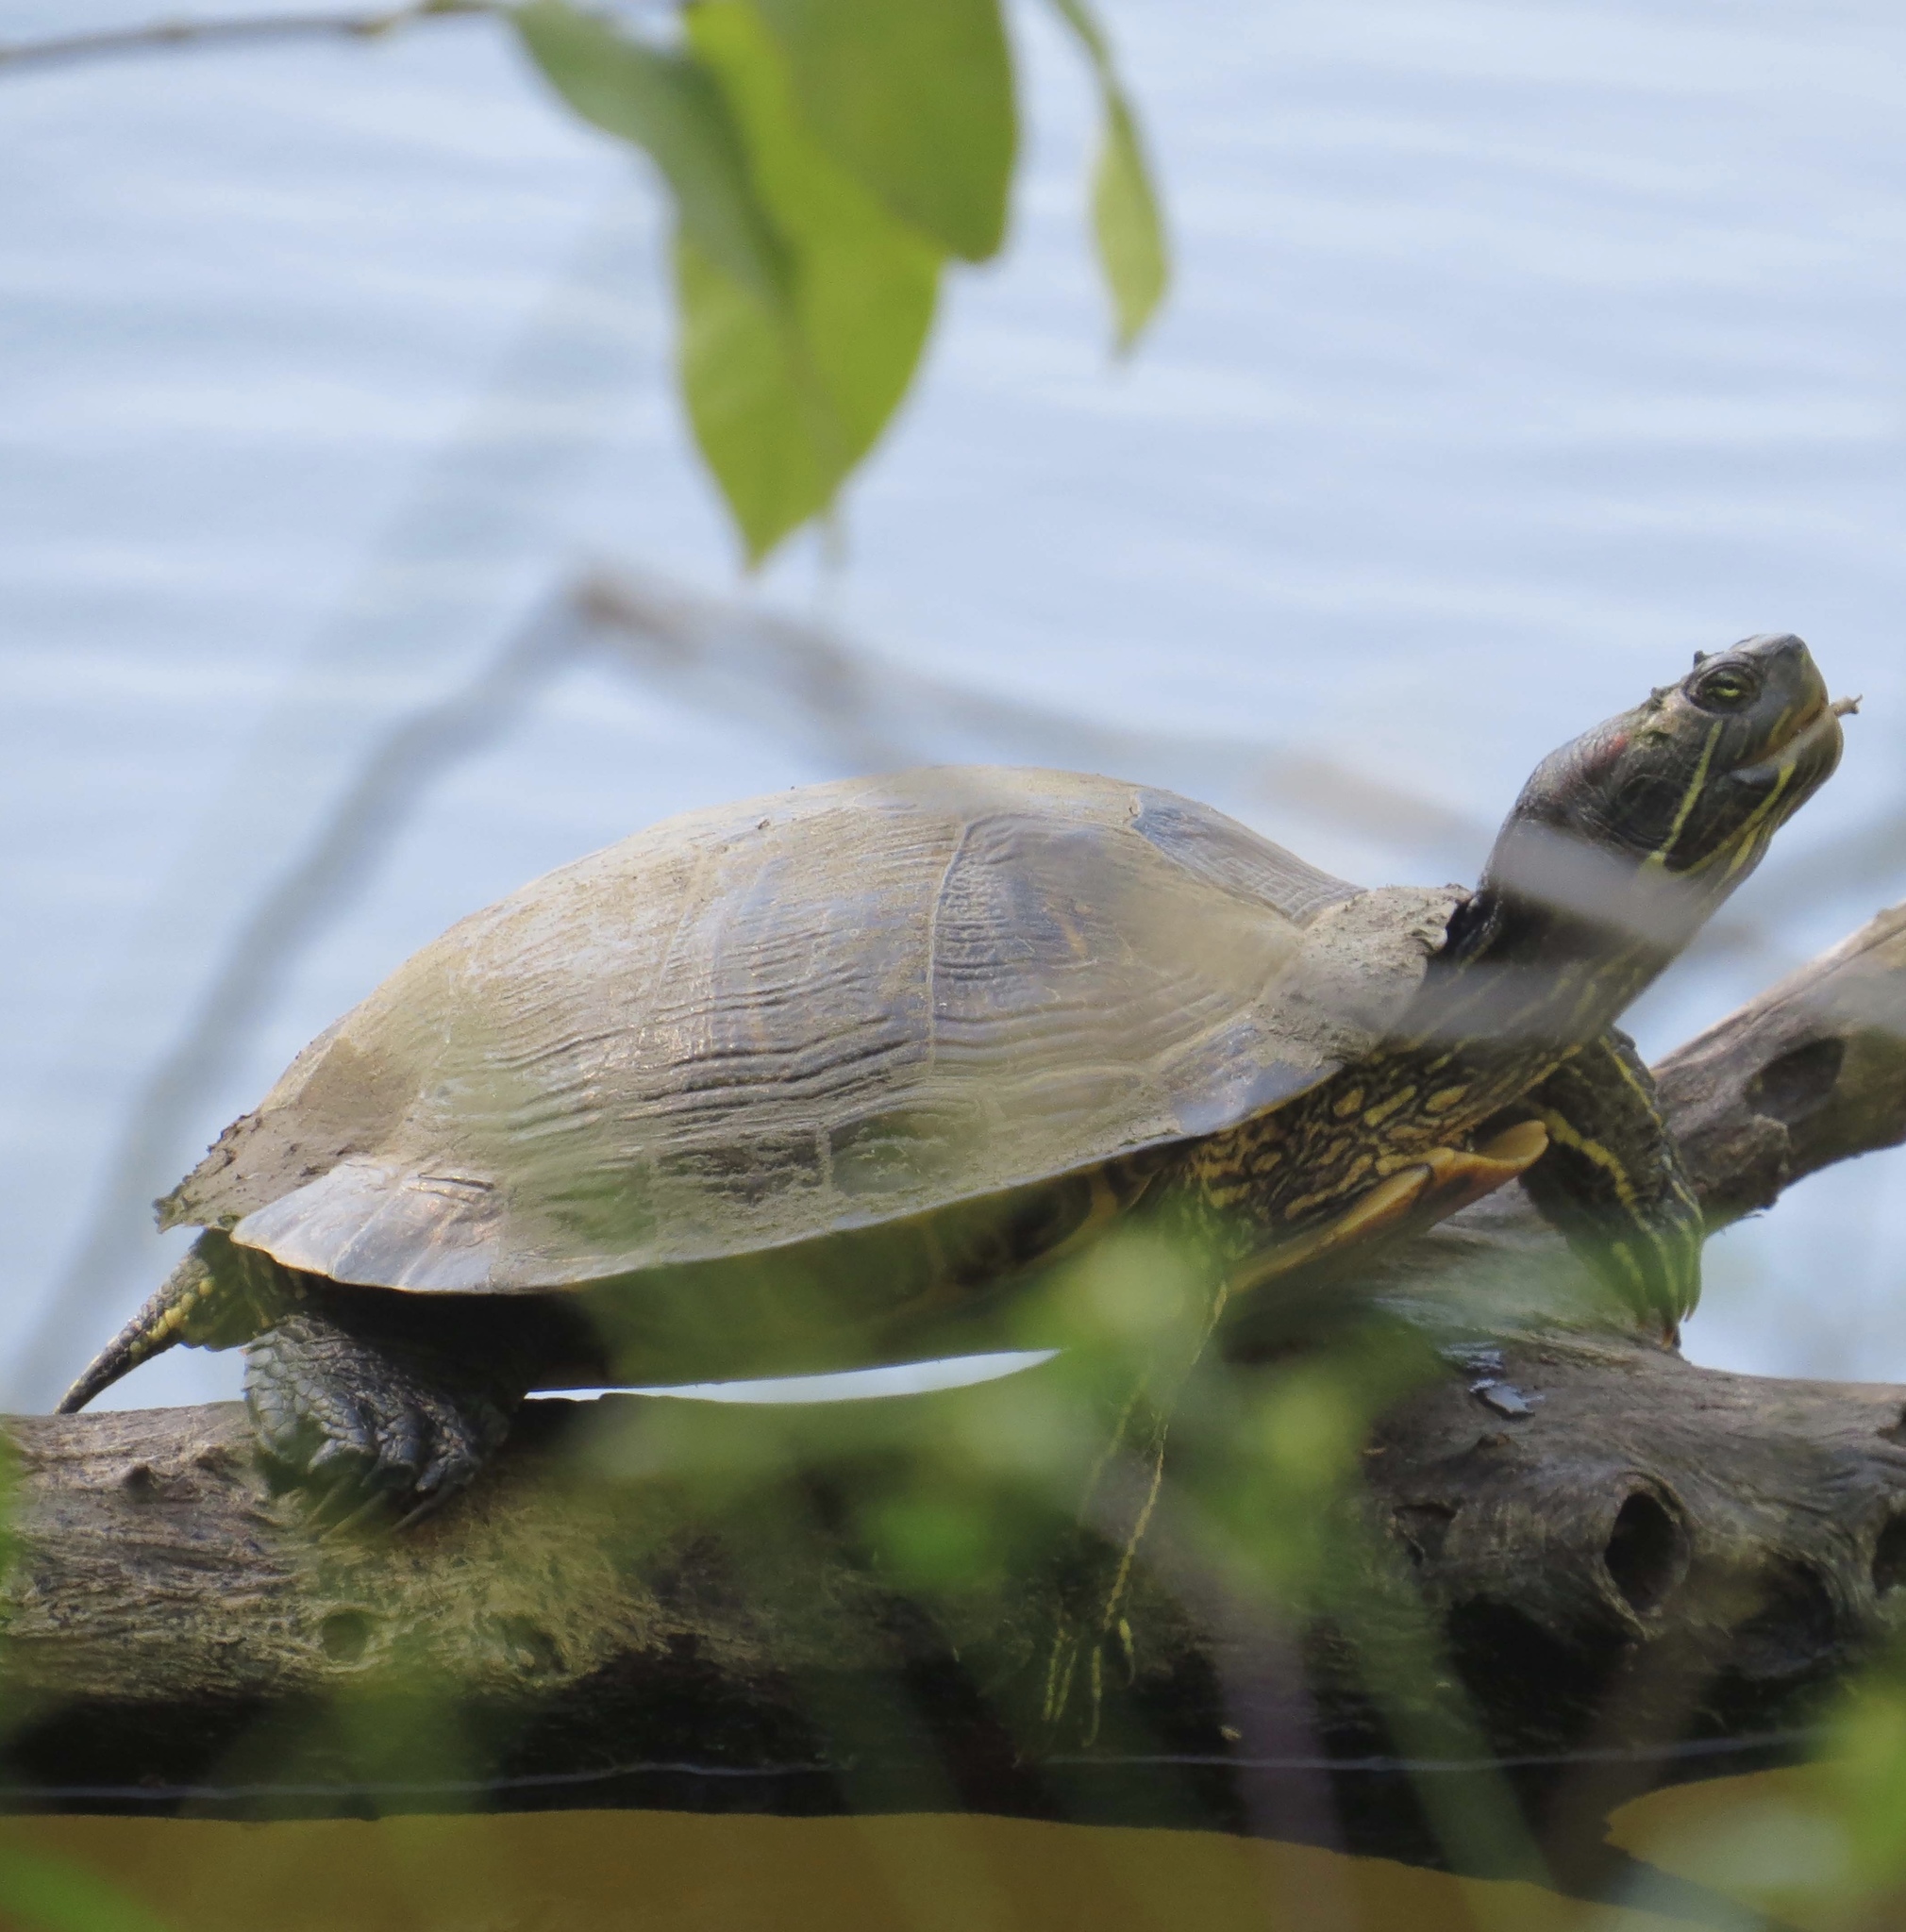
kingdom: Animalia
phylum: Chordata
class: Testudines
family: Emydidae
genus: Trachemys
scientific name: Trachemys scripta
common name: Slider
